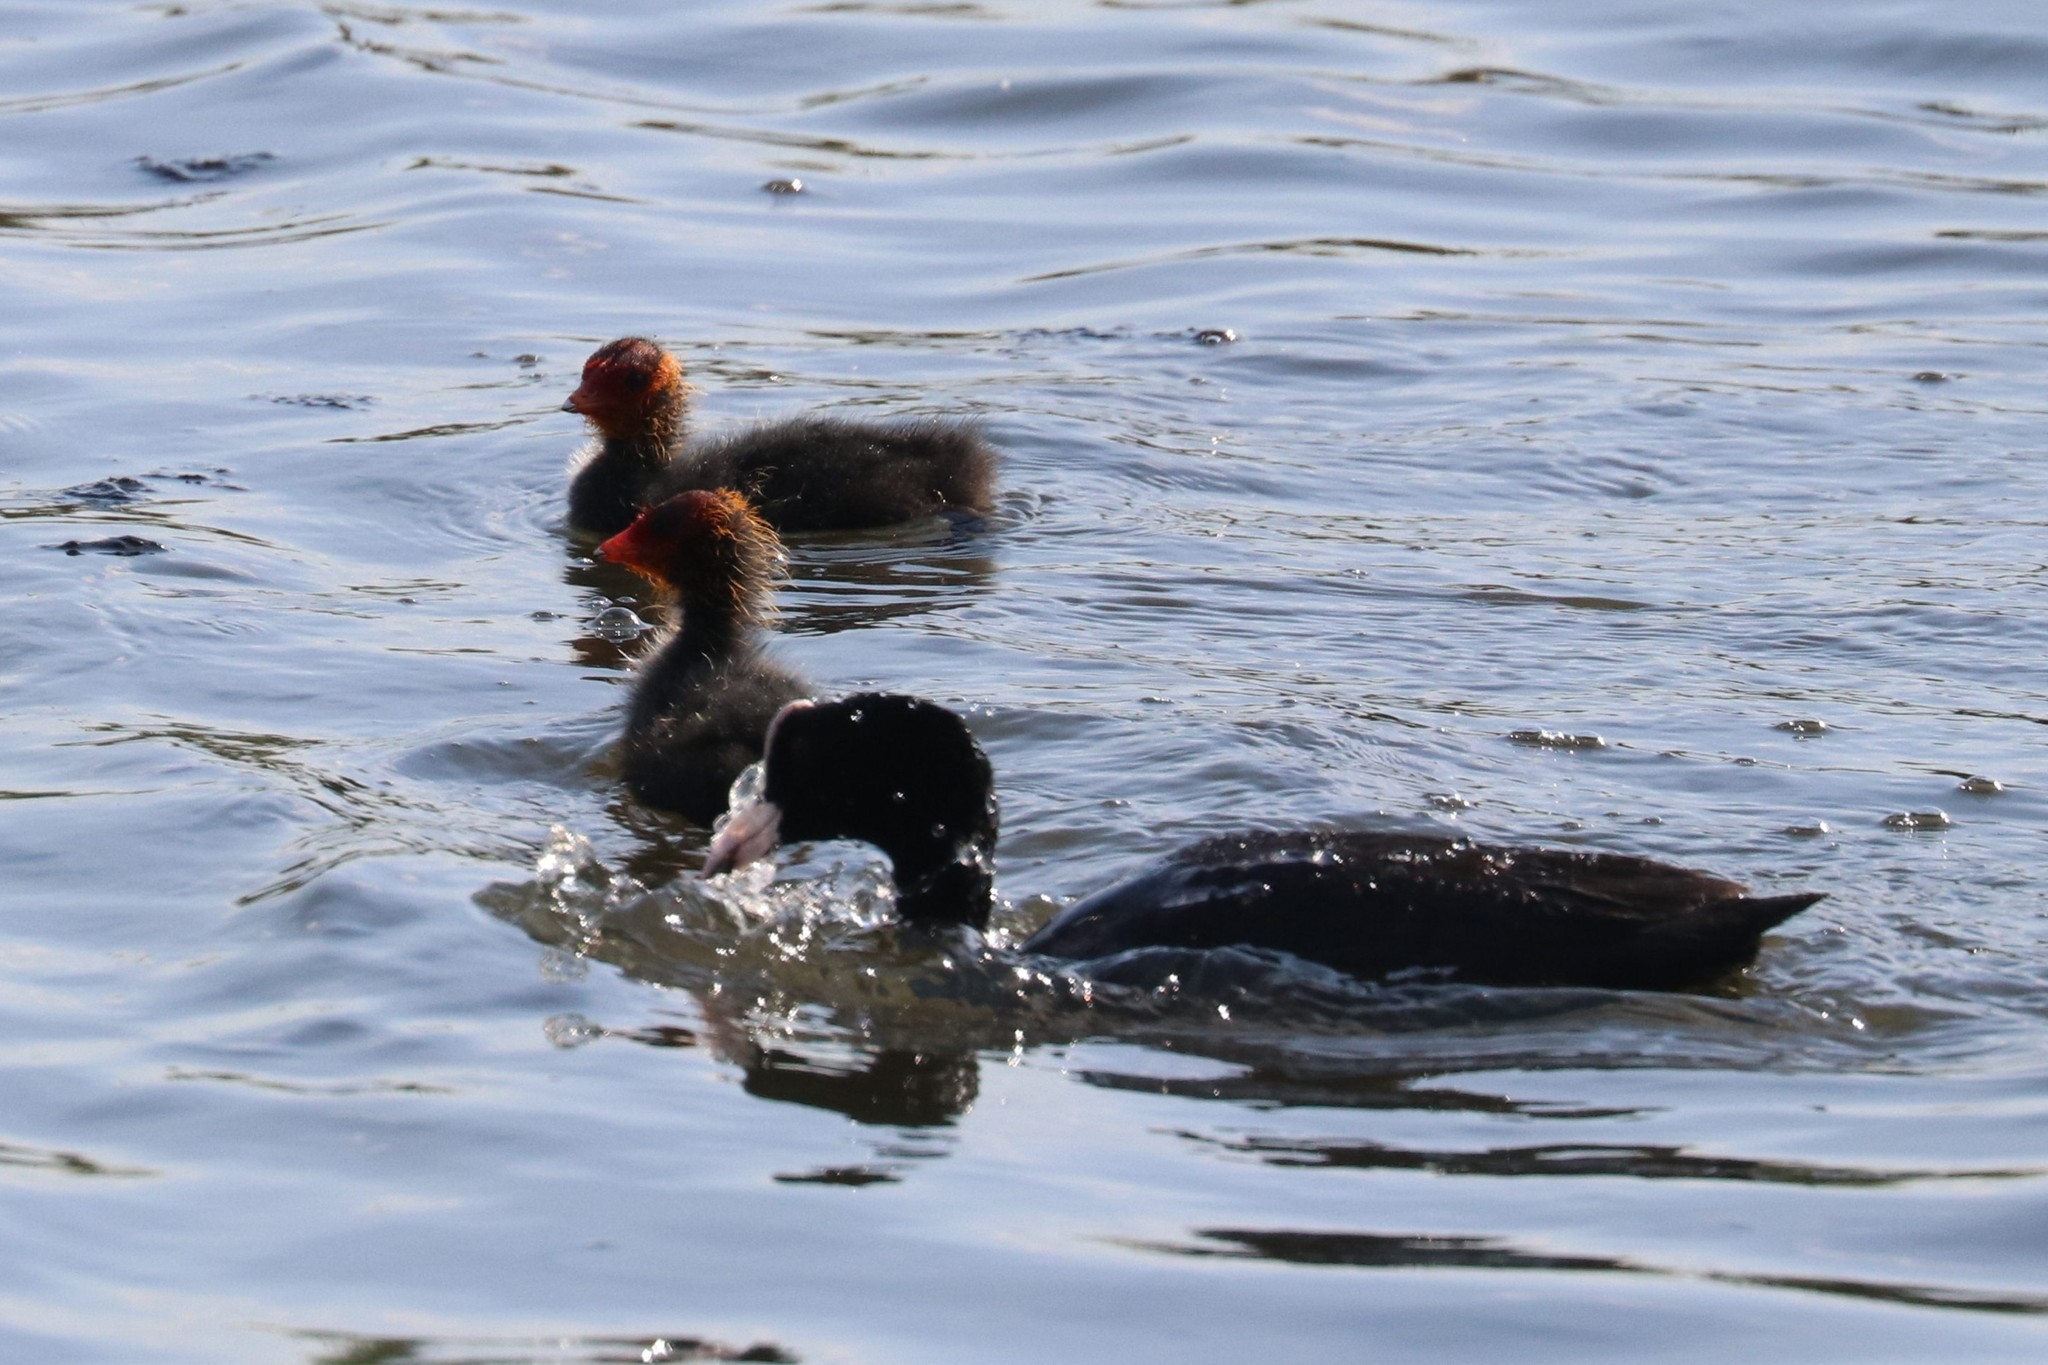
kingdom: Animalia
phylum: Chordata
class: Aves
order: Gruiformes
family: Rallidae
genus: Fulica
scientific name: Fulica atra
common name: Eurasian coot
